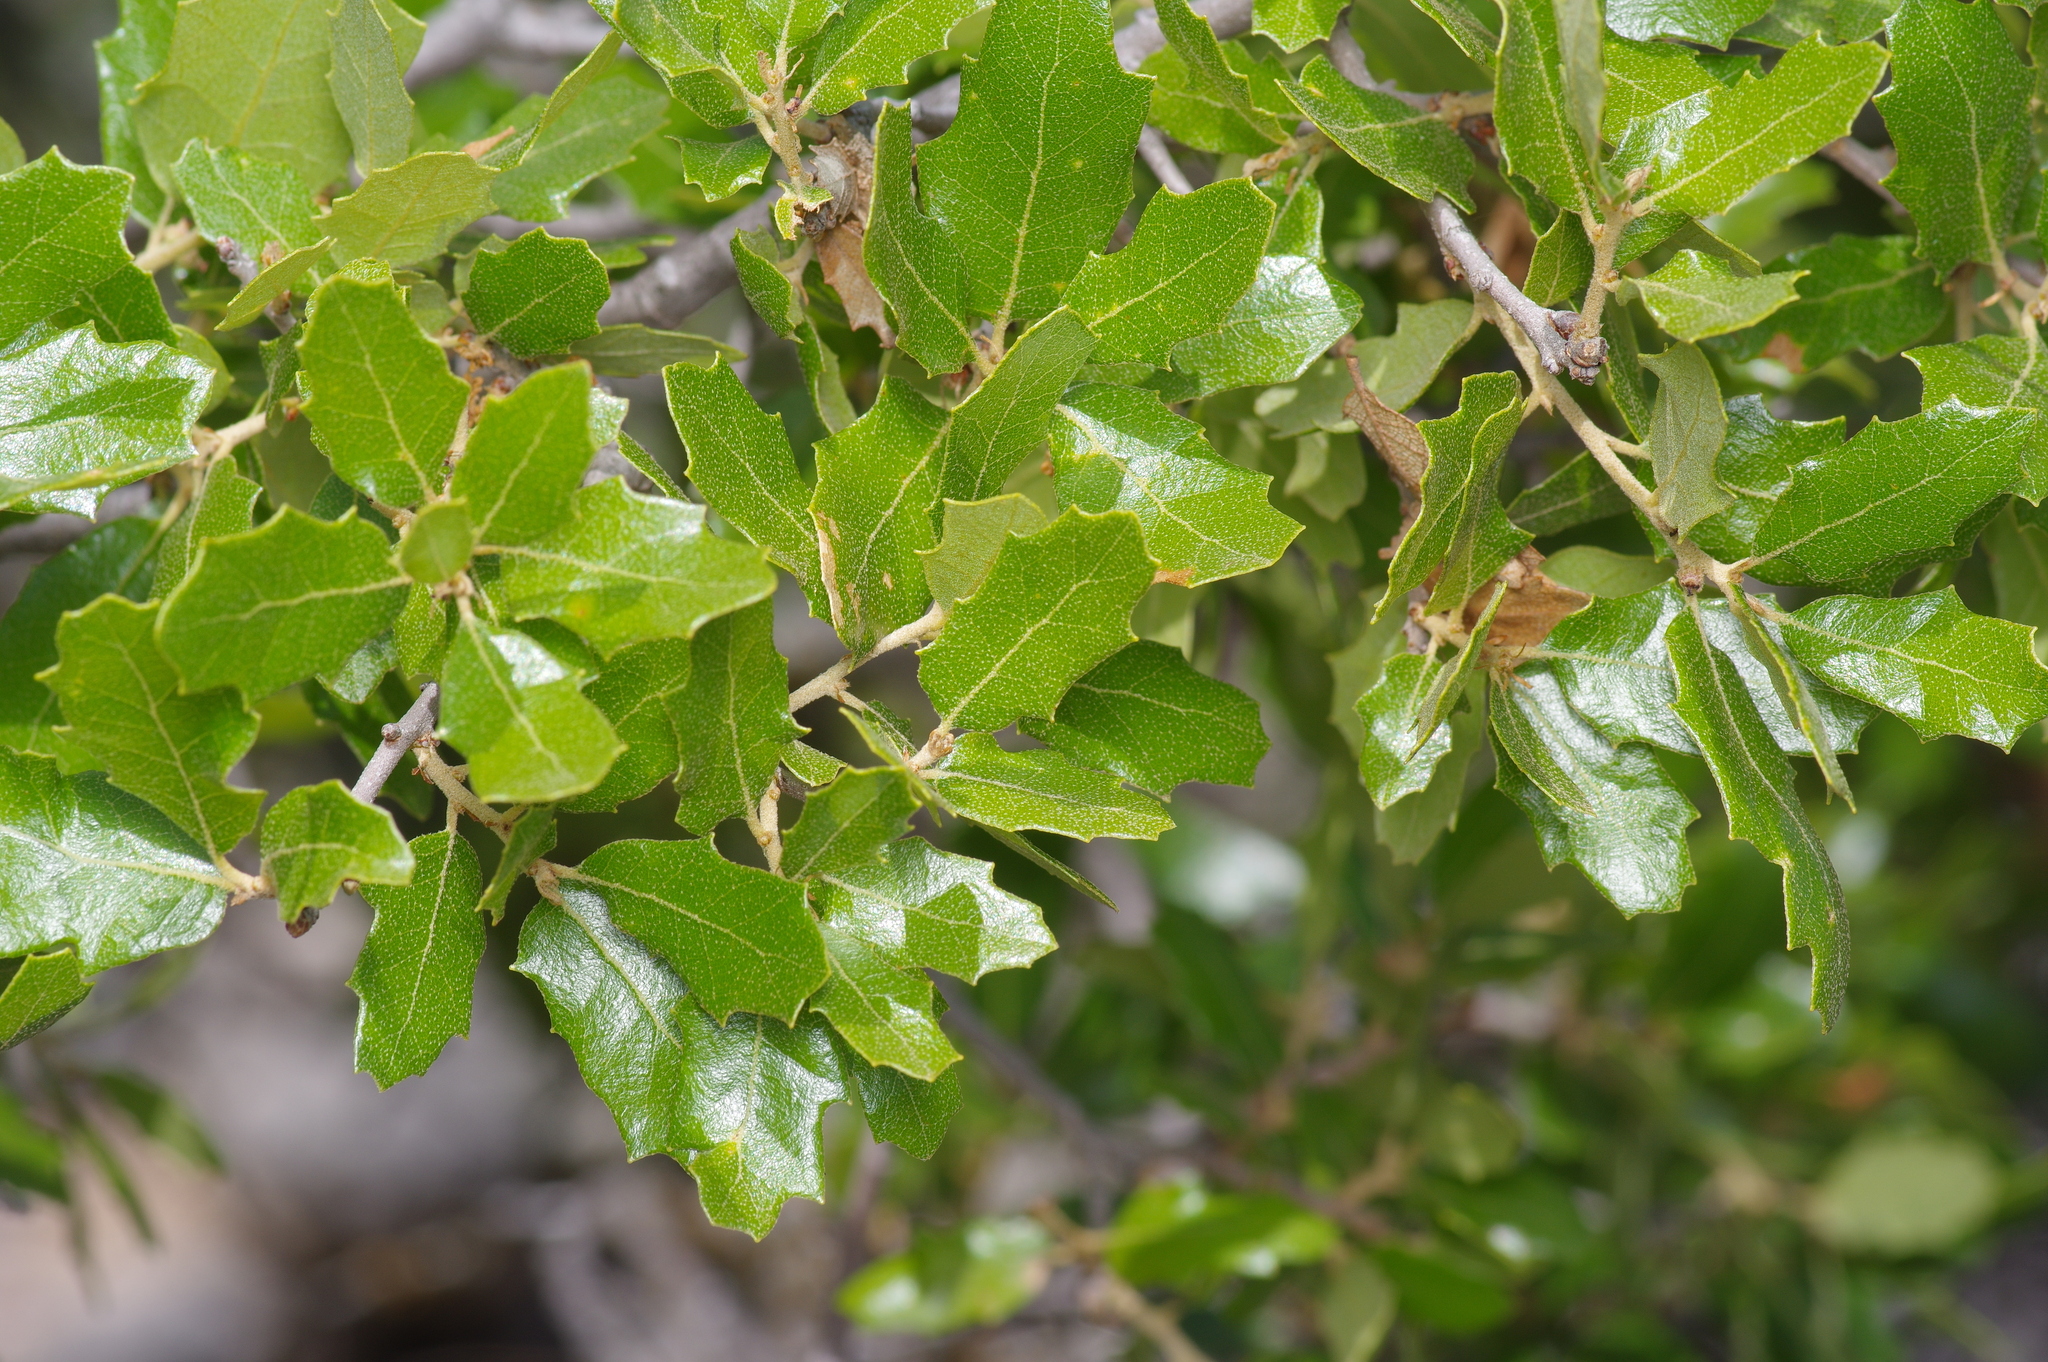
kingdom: Plantae
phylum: Tracheophyta
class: Magnoliopsida
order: Fagales
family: Fagaceae
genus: Quercus
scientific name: Quercus vaseyana
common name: Sandpaper oak
